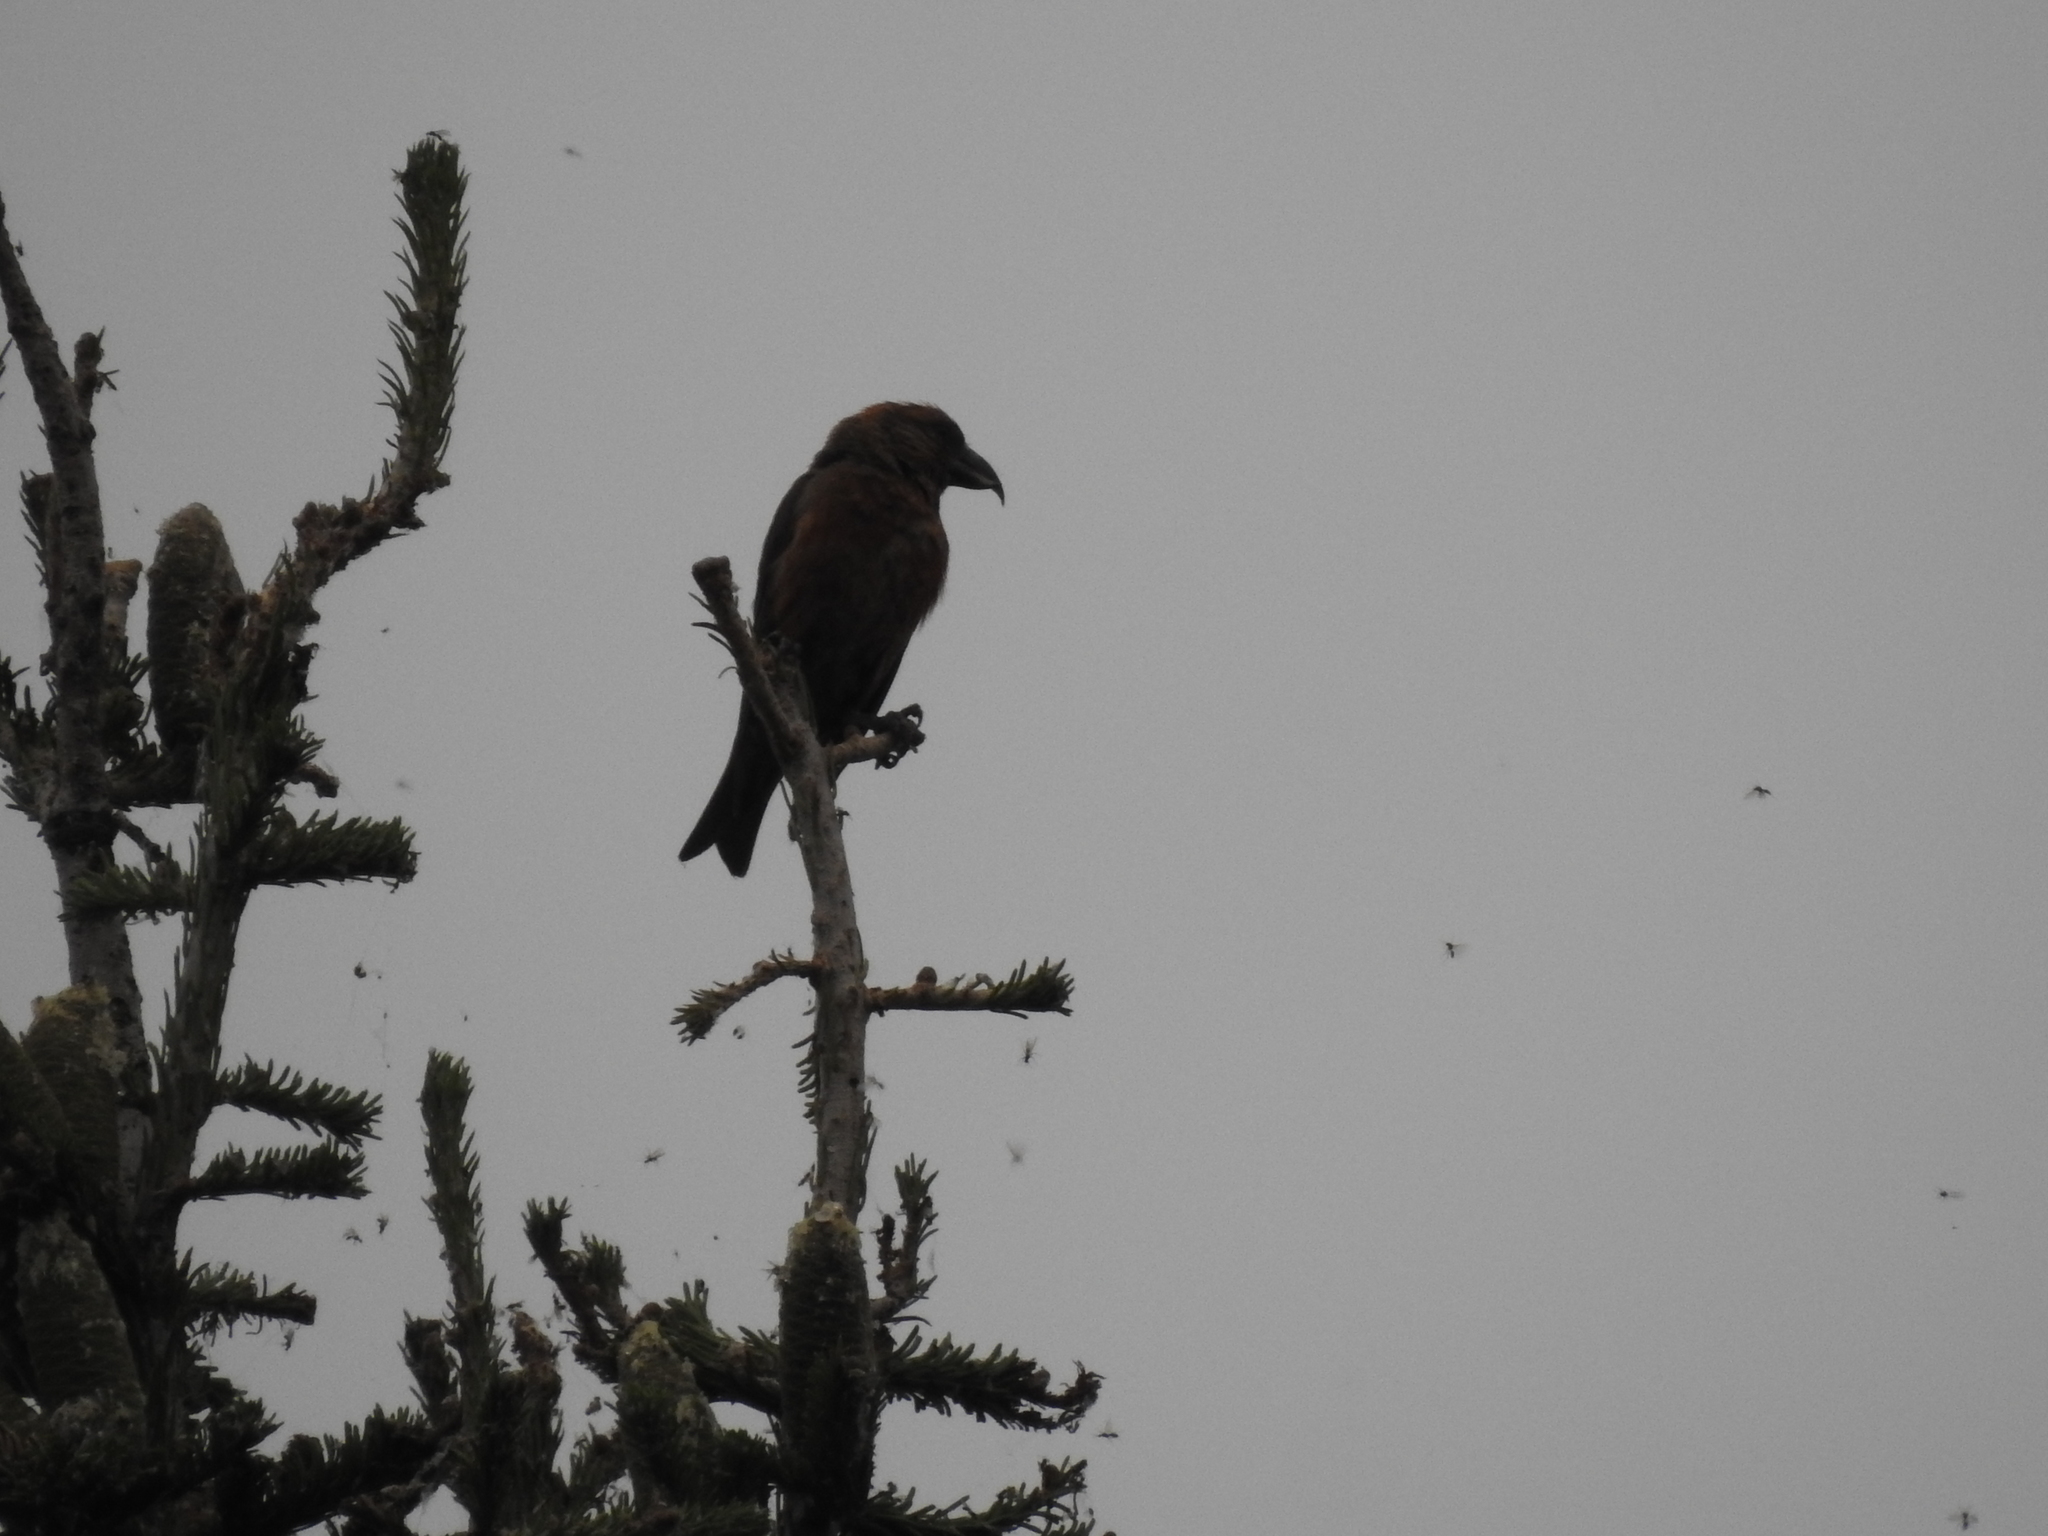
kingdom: Animalia
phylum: Chordata
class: Aves
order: Passeriformes
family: Fringillidae
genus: Loxia
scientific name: Loxia curvirostra
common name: Red crossbill
